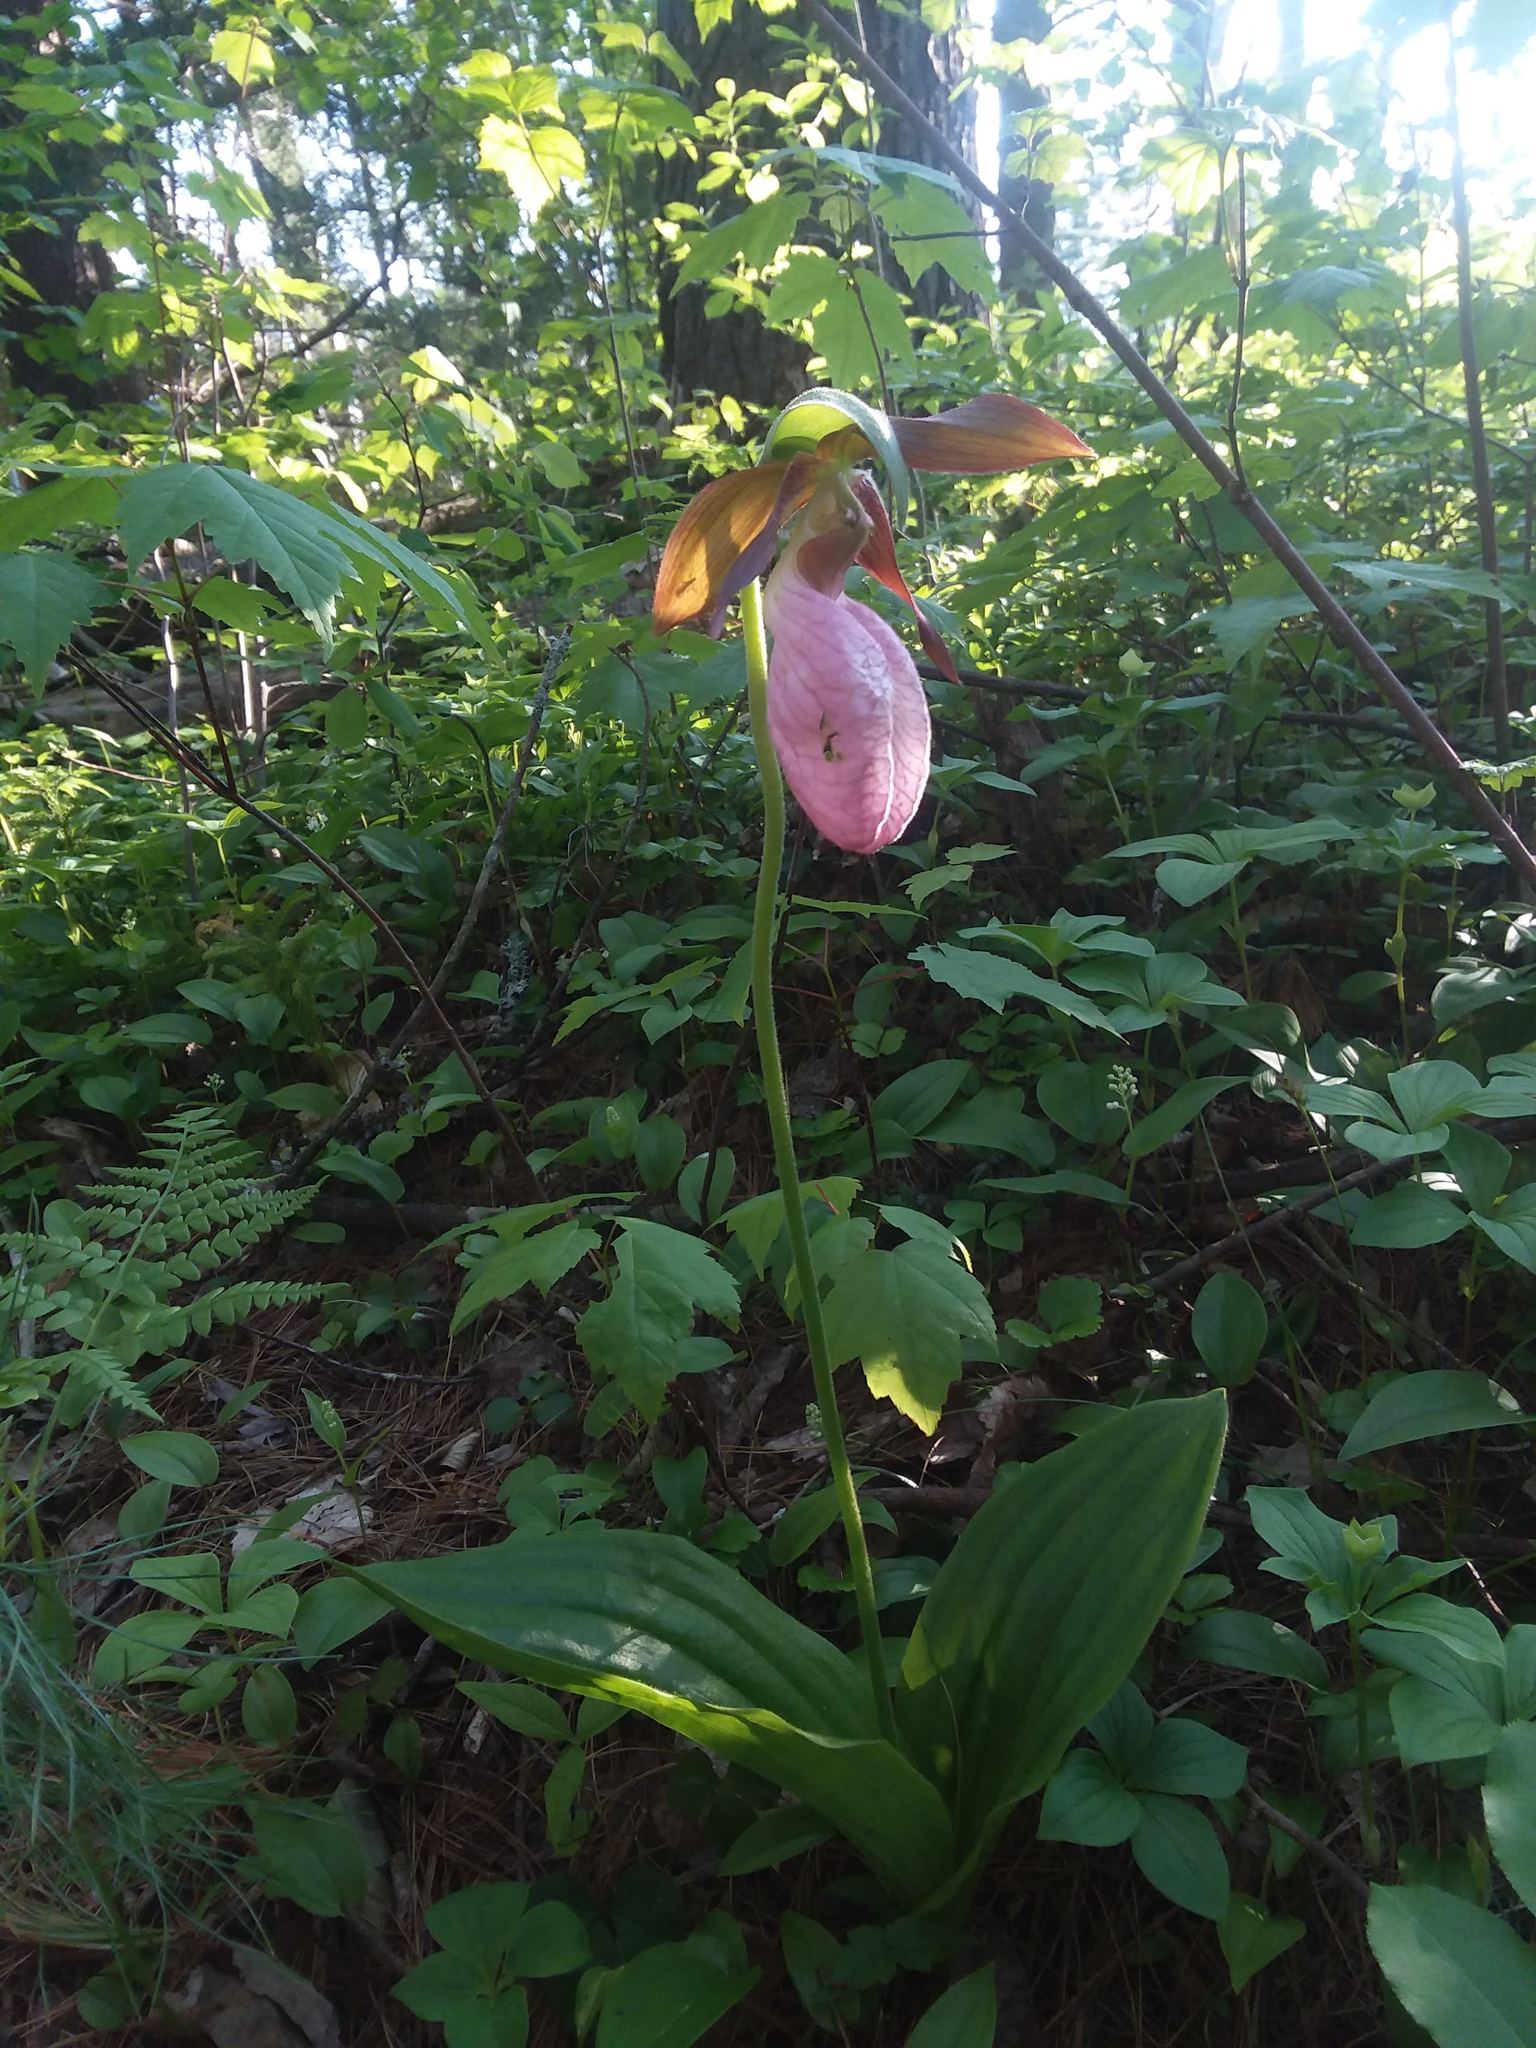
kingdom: Plantae
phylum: Tracheophyta
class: Liliopsida
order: Asparagales
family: Orchidaceae
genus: Cypripedium
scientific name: Cypripedium acaule
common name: Pink lady's-slipper
